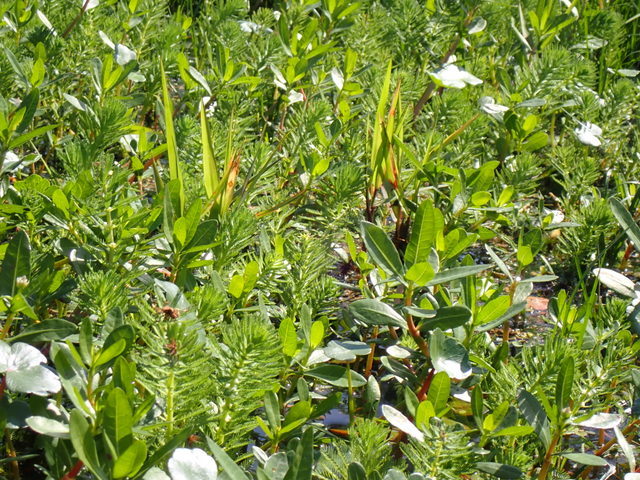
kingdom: Plantae
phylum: Tracheophyta
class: Magnoliopsida
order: Saxifragales
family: Haloragaceae
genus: Myriophyllum
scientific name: Myriophyllum aquaticum
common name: Parrot's feather
